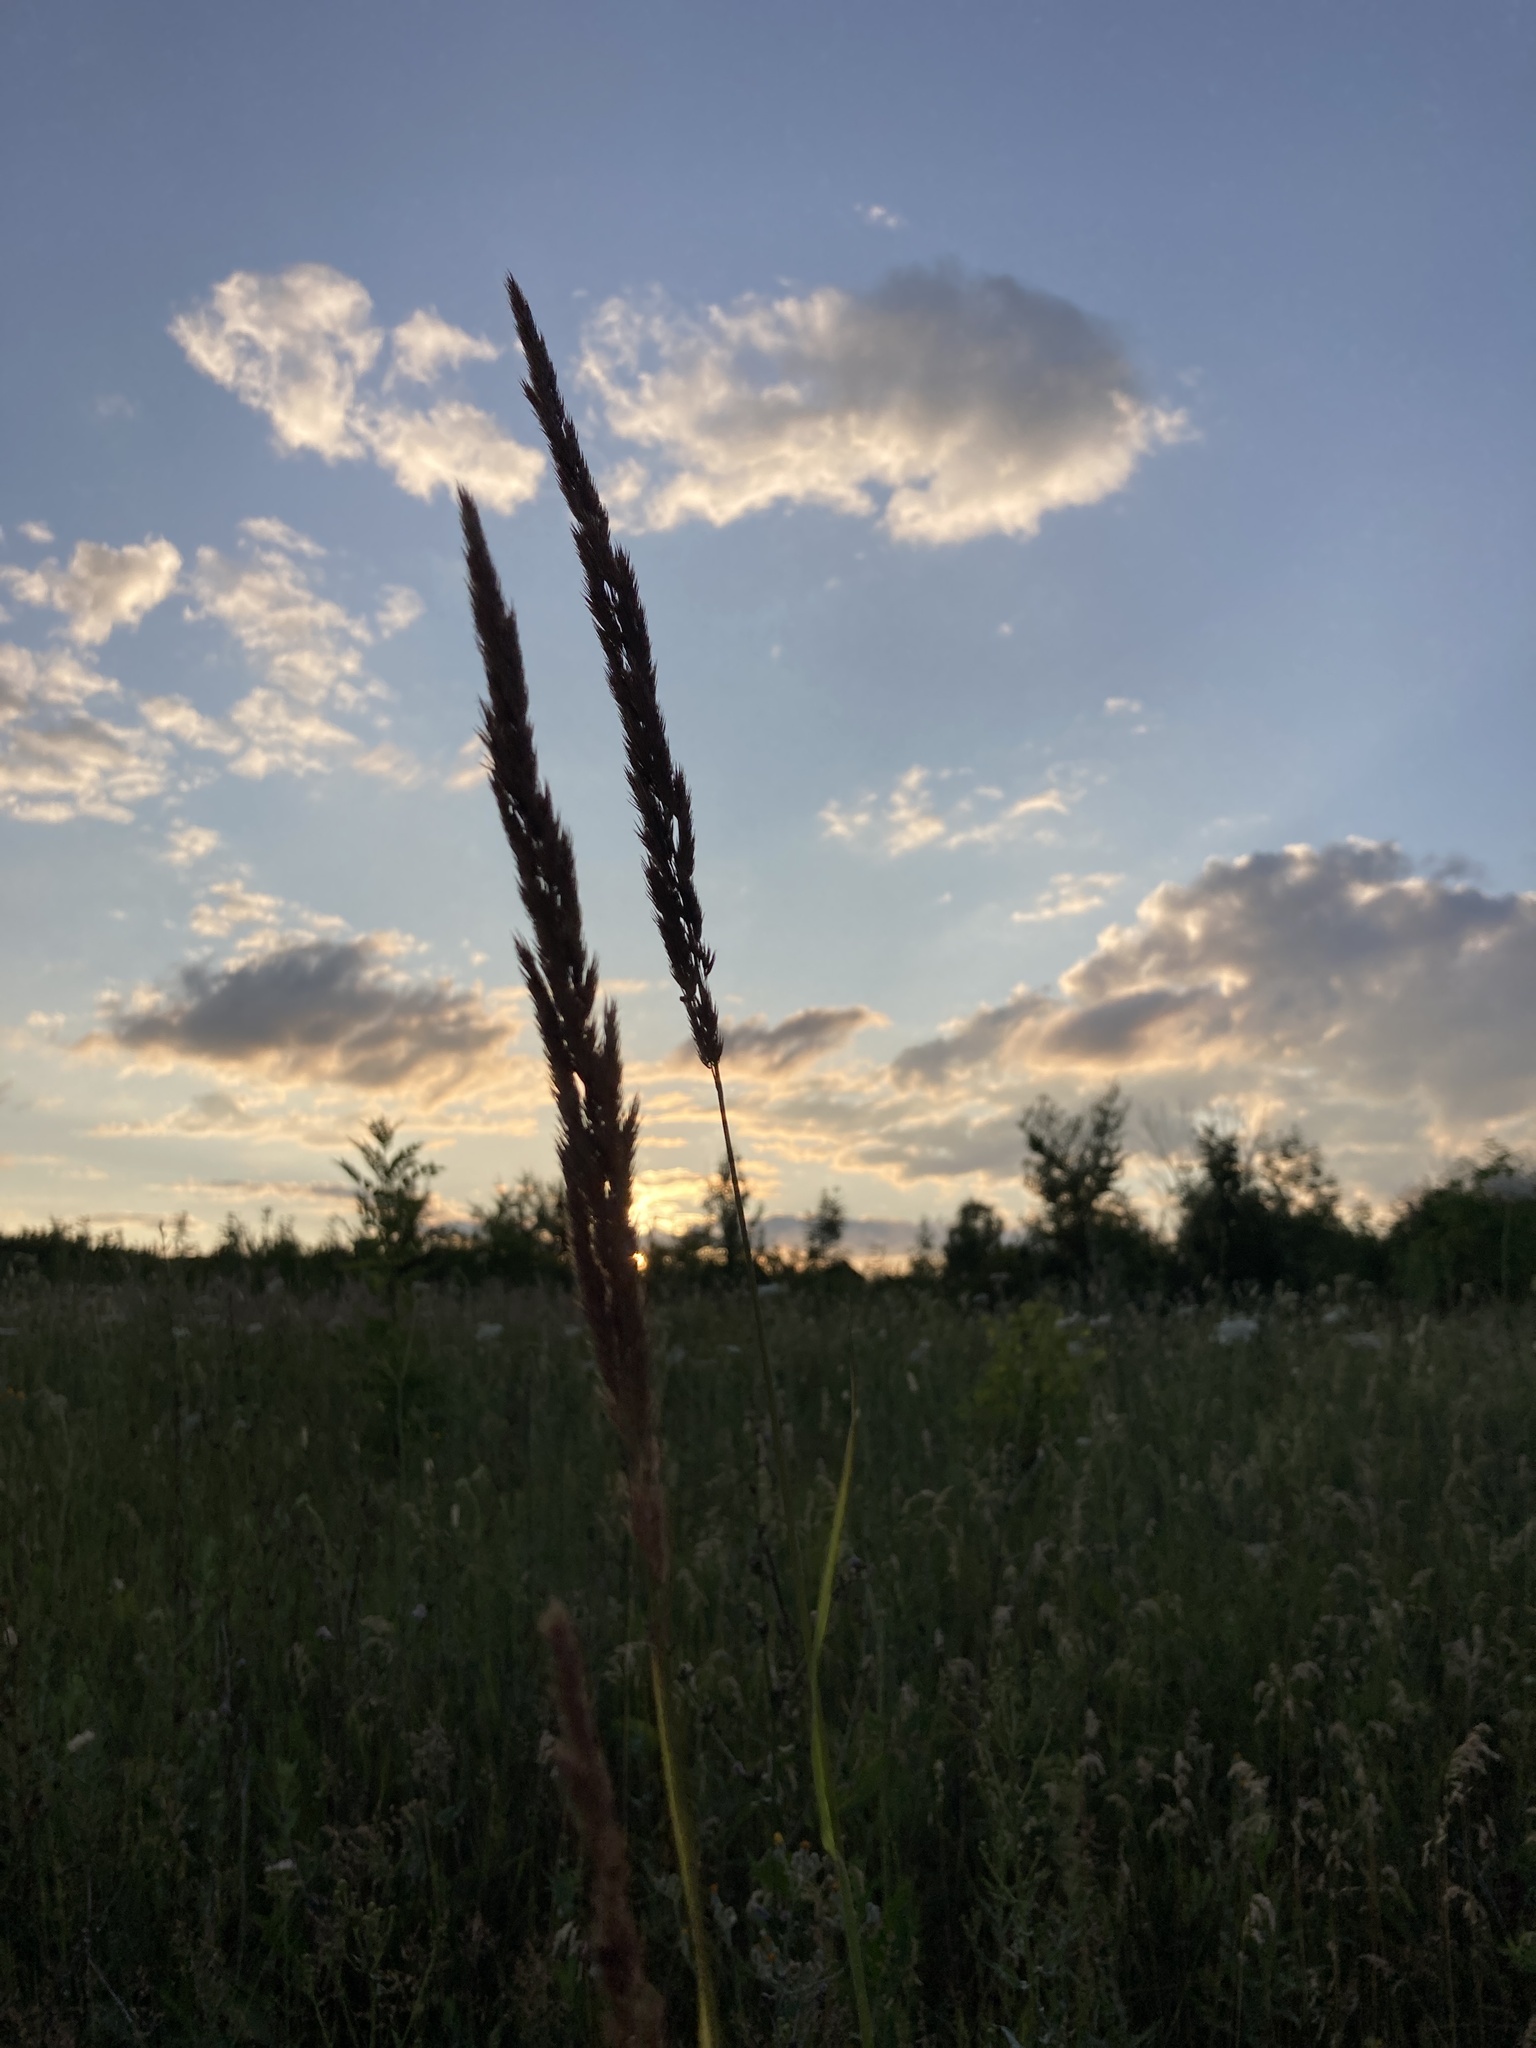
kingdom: Plantae
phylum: Tracheophyta
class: Liliopsida
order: Poales
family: Poaceae
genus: Calamagrostis
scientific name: Calamagrostis epigejos
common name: Wood small-reed
